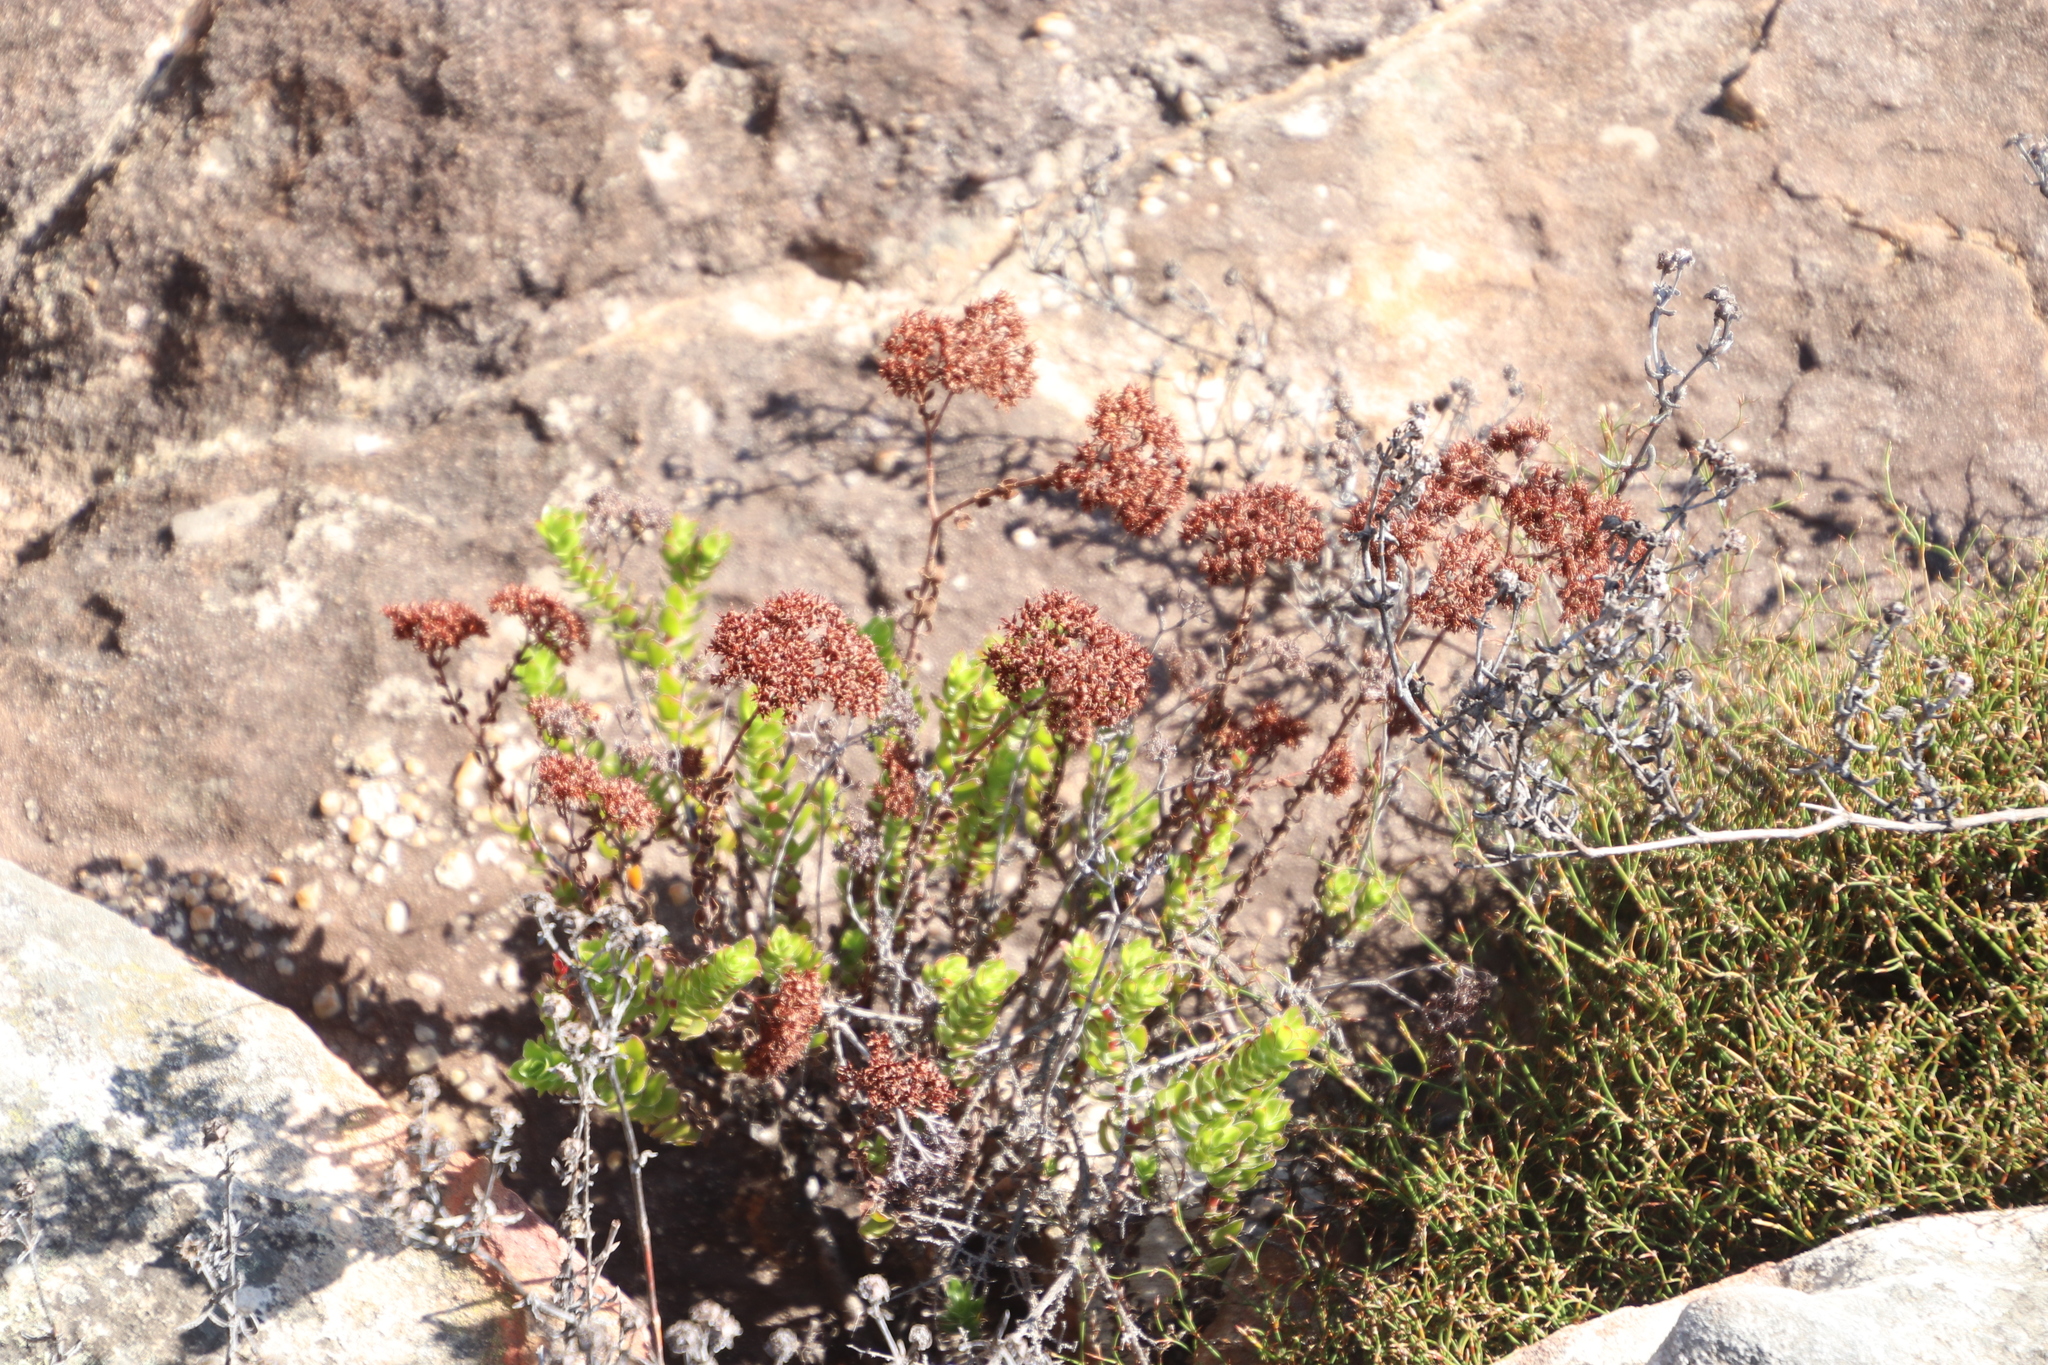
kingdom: Plantae
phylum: Tracheophyta
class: Magnoliopsida
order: Saxifragales
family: Crassulaceae
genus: Crassula
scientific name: Crassula undulata
